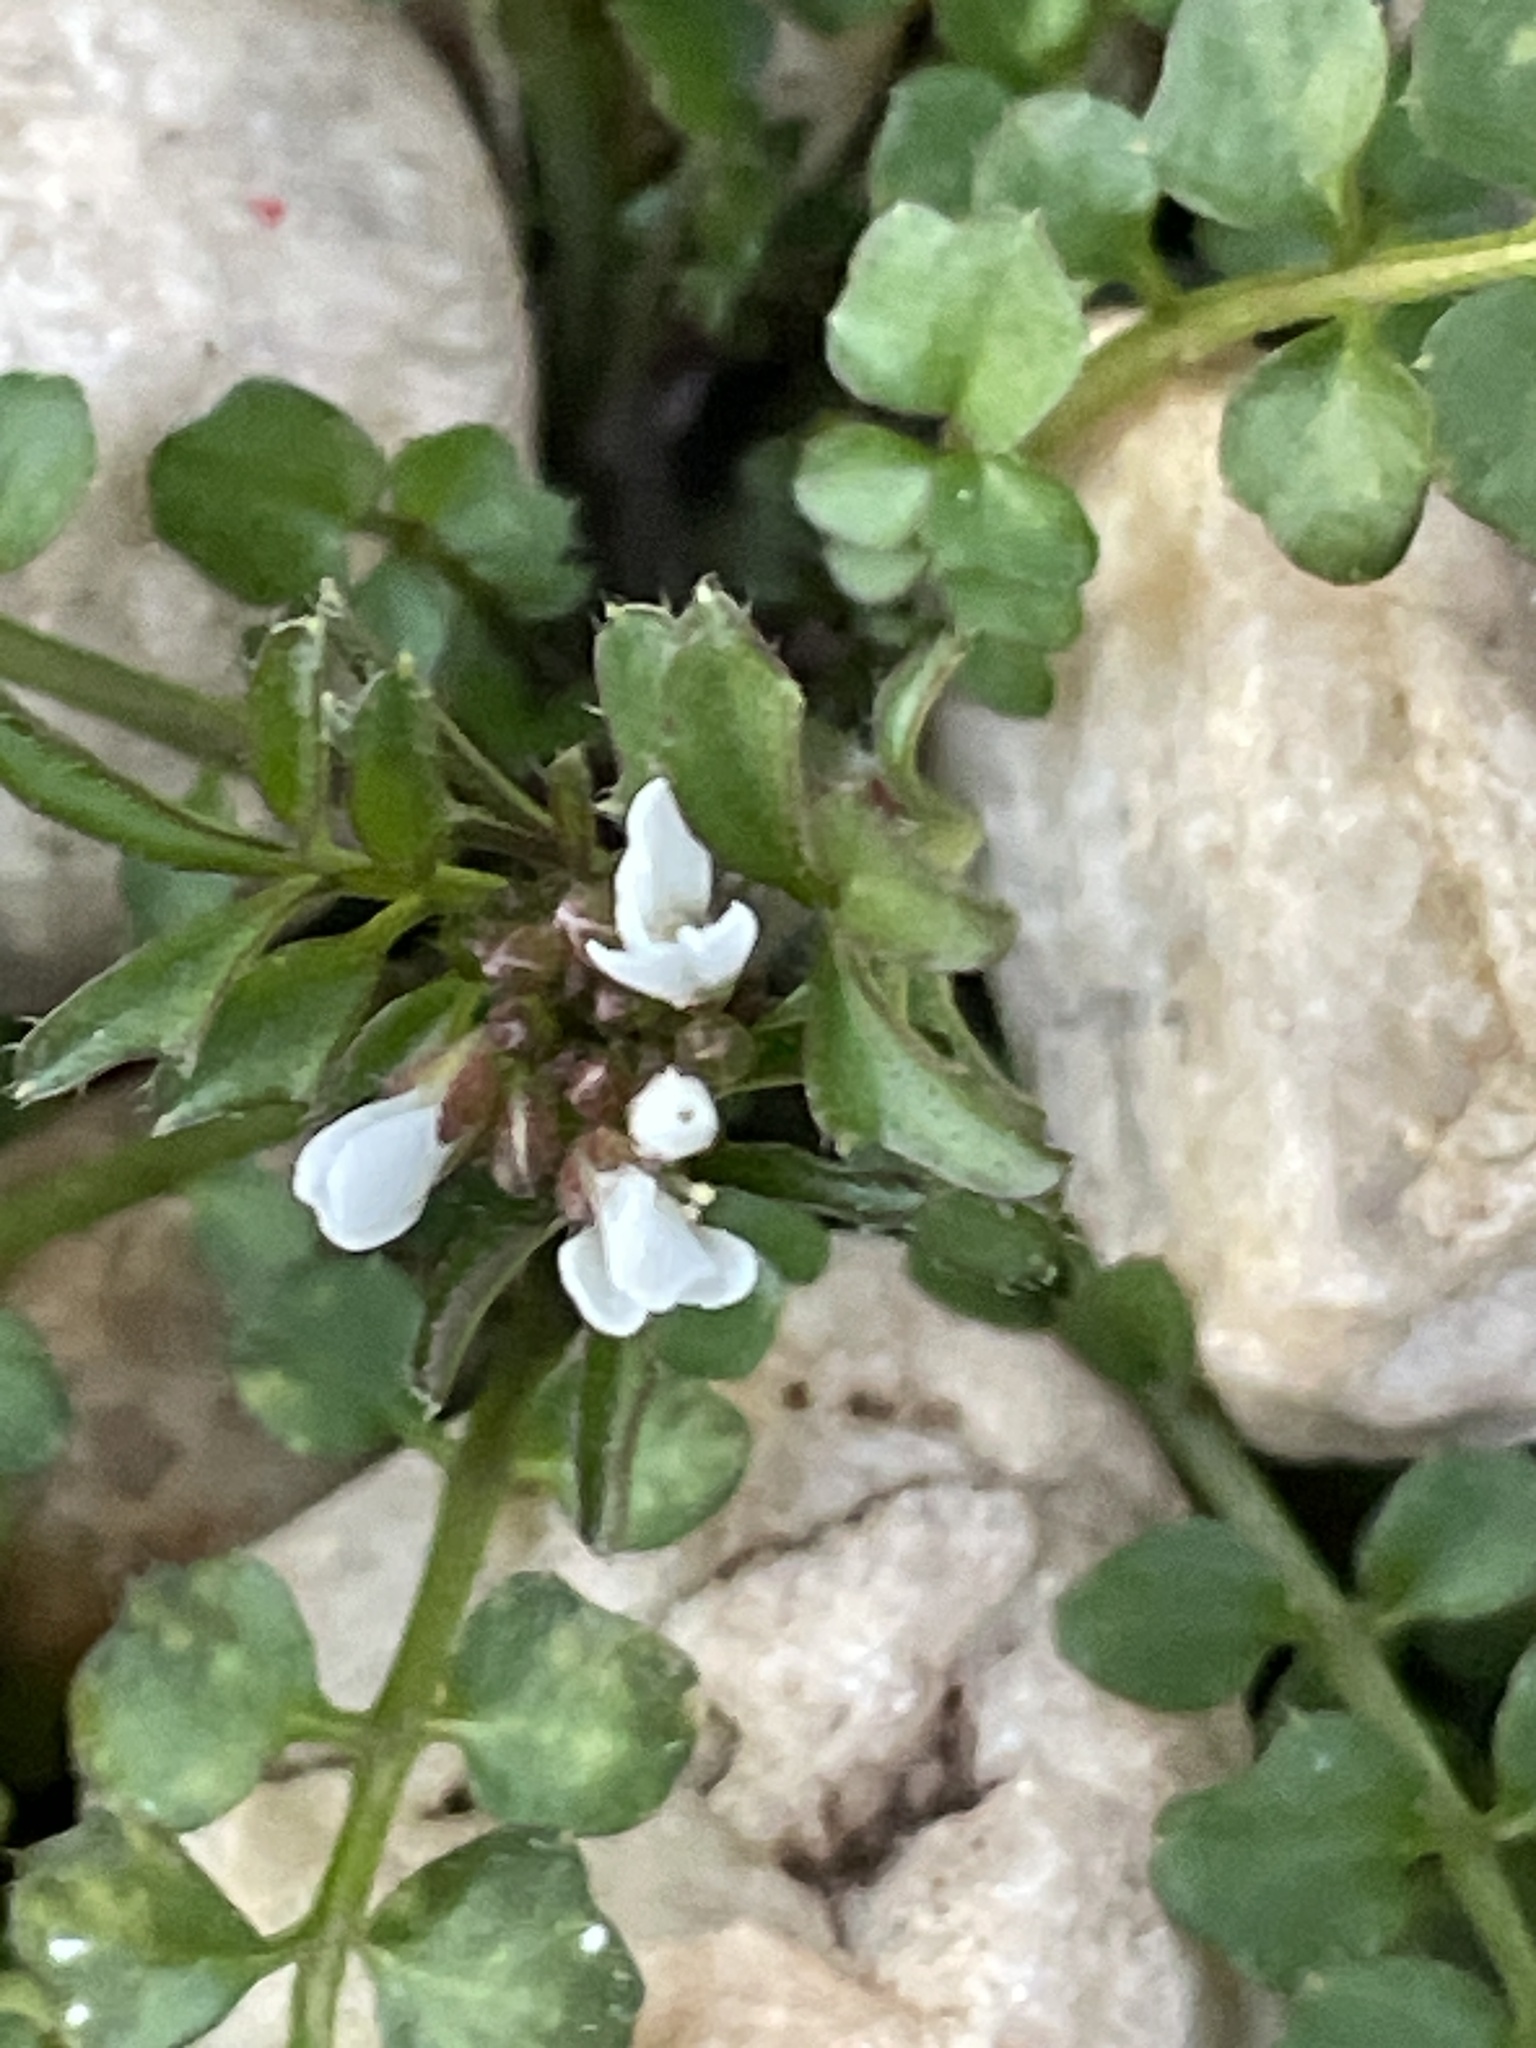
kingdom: Plantae
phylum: Tracheophyta
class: Magnoliopsida
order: Brassicales
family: Brassicaceae
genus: Cardamine
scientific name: Cardamine hirsuta
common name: Hairy bittercress
